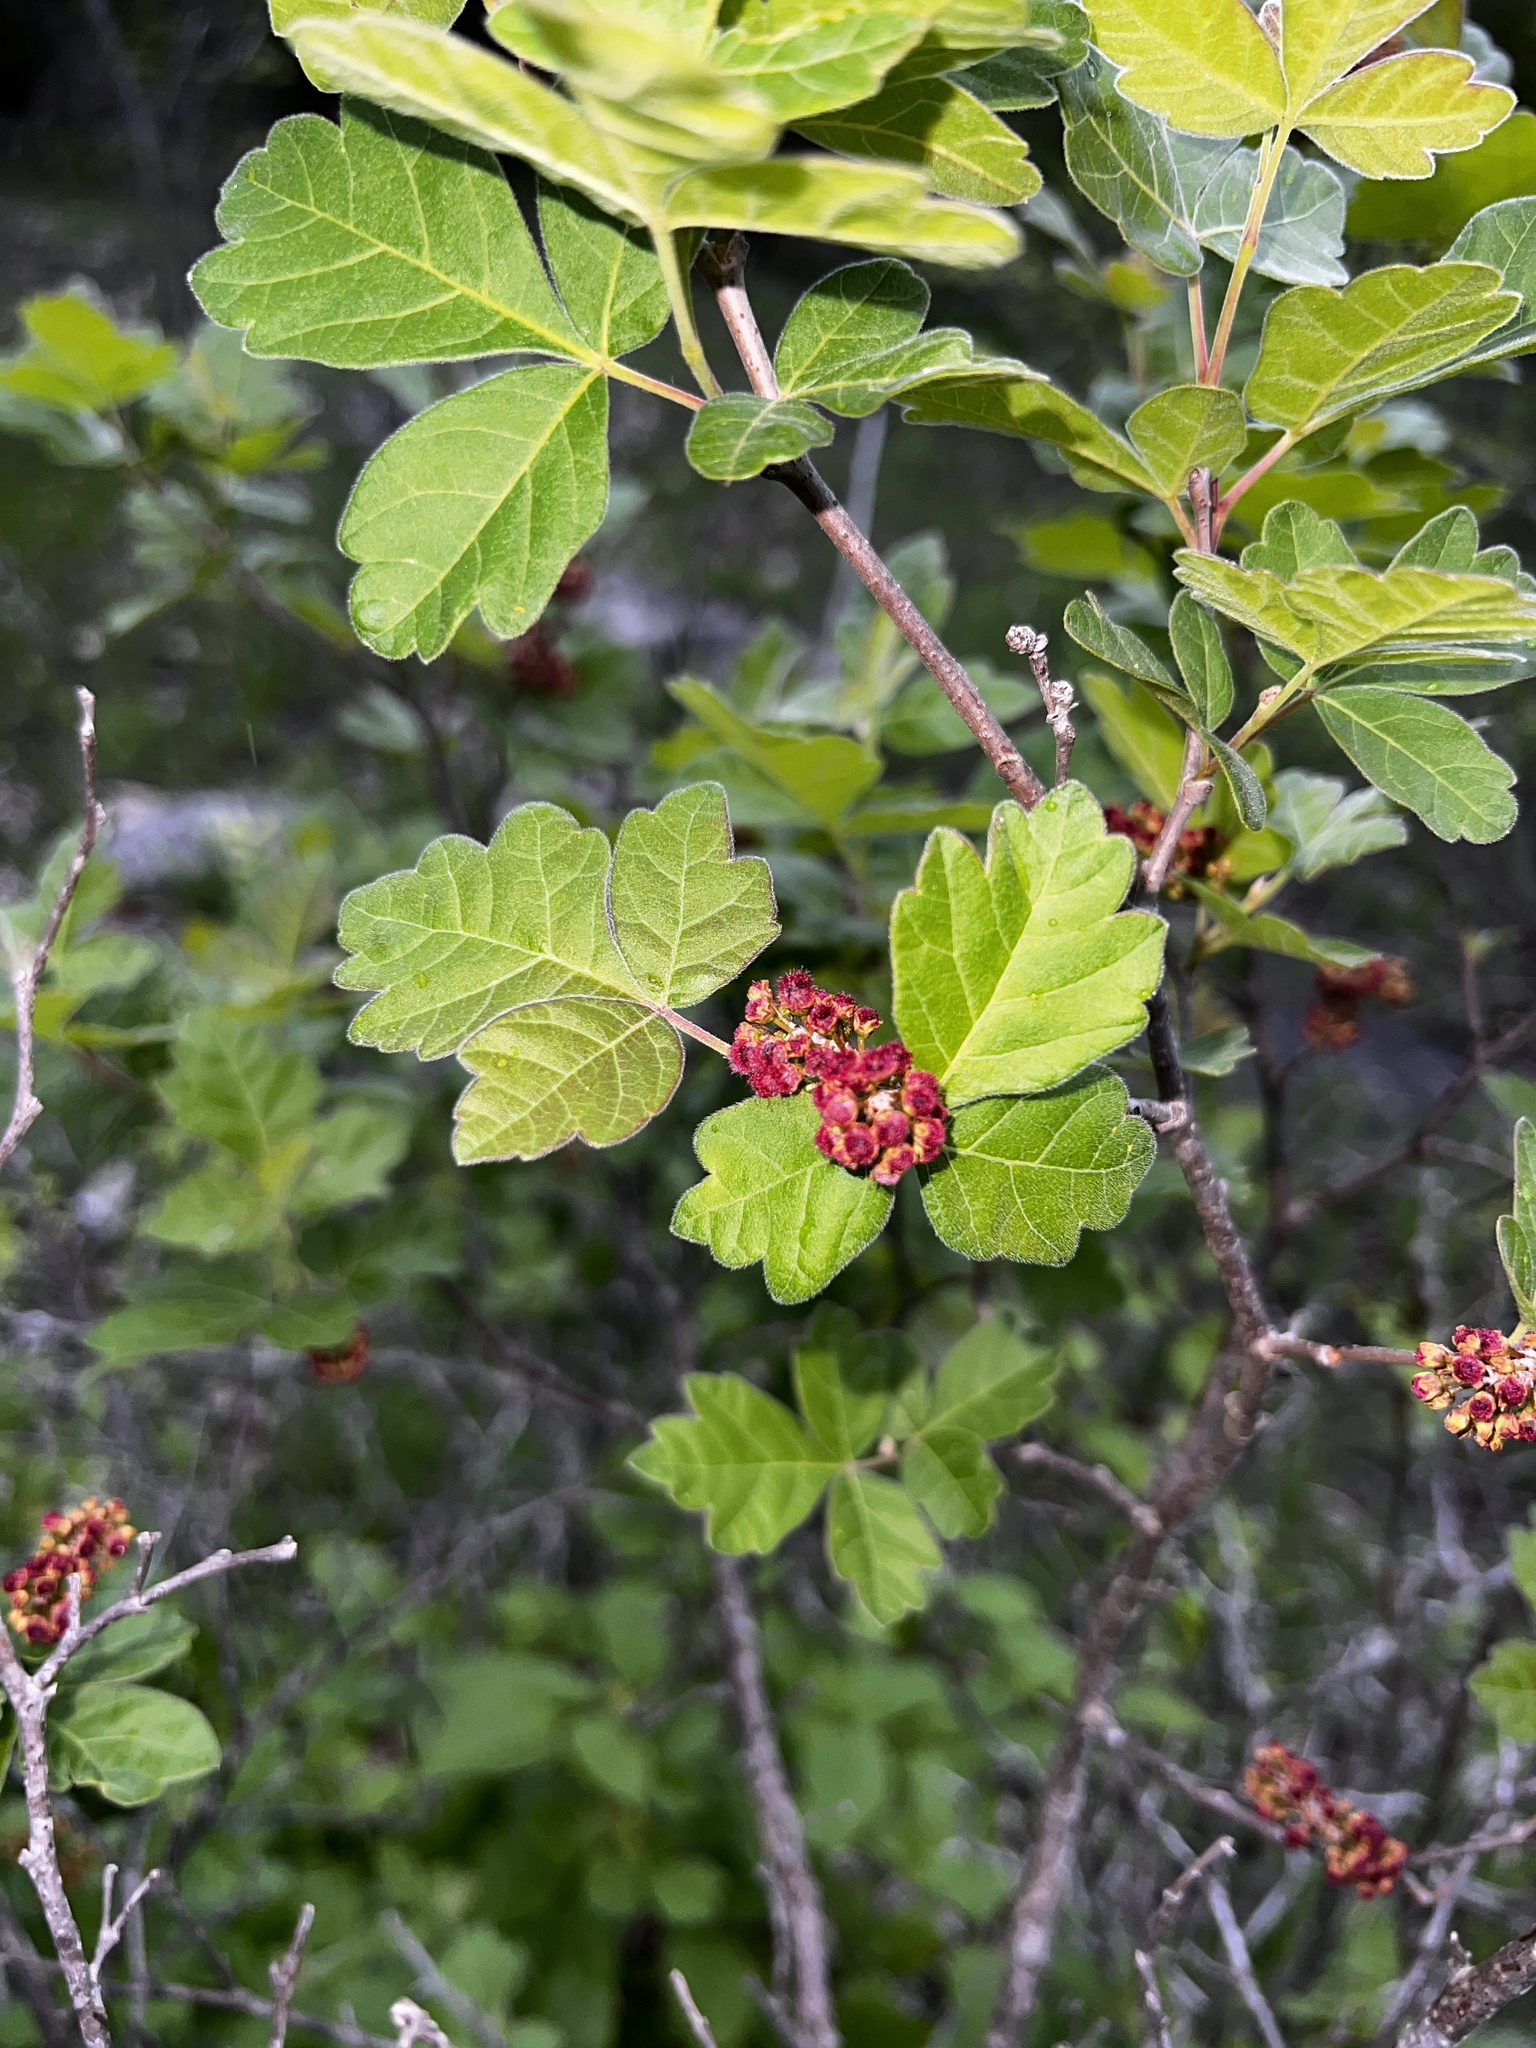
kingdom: Plantae
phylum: Tracheophyta
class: Magnoliopsida
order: Sapindales
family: Anacardiaceae
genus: Rhus
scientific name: Rhus aromatica
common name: Aromatic sumac
